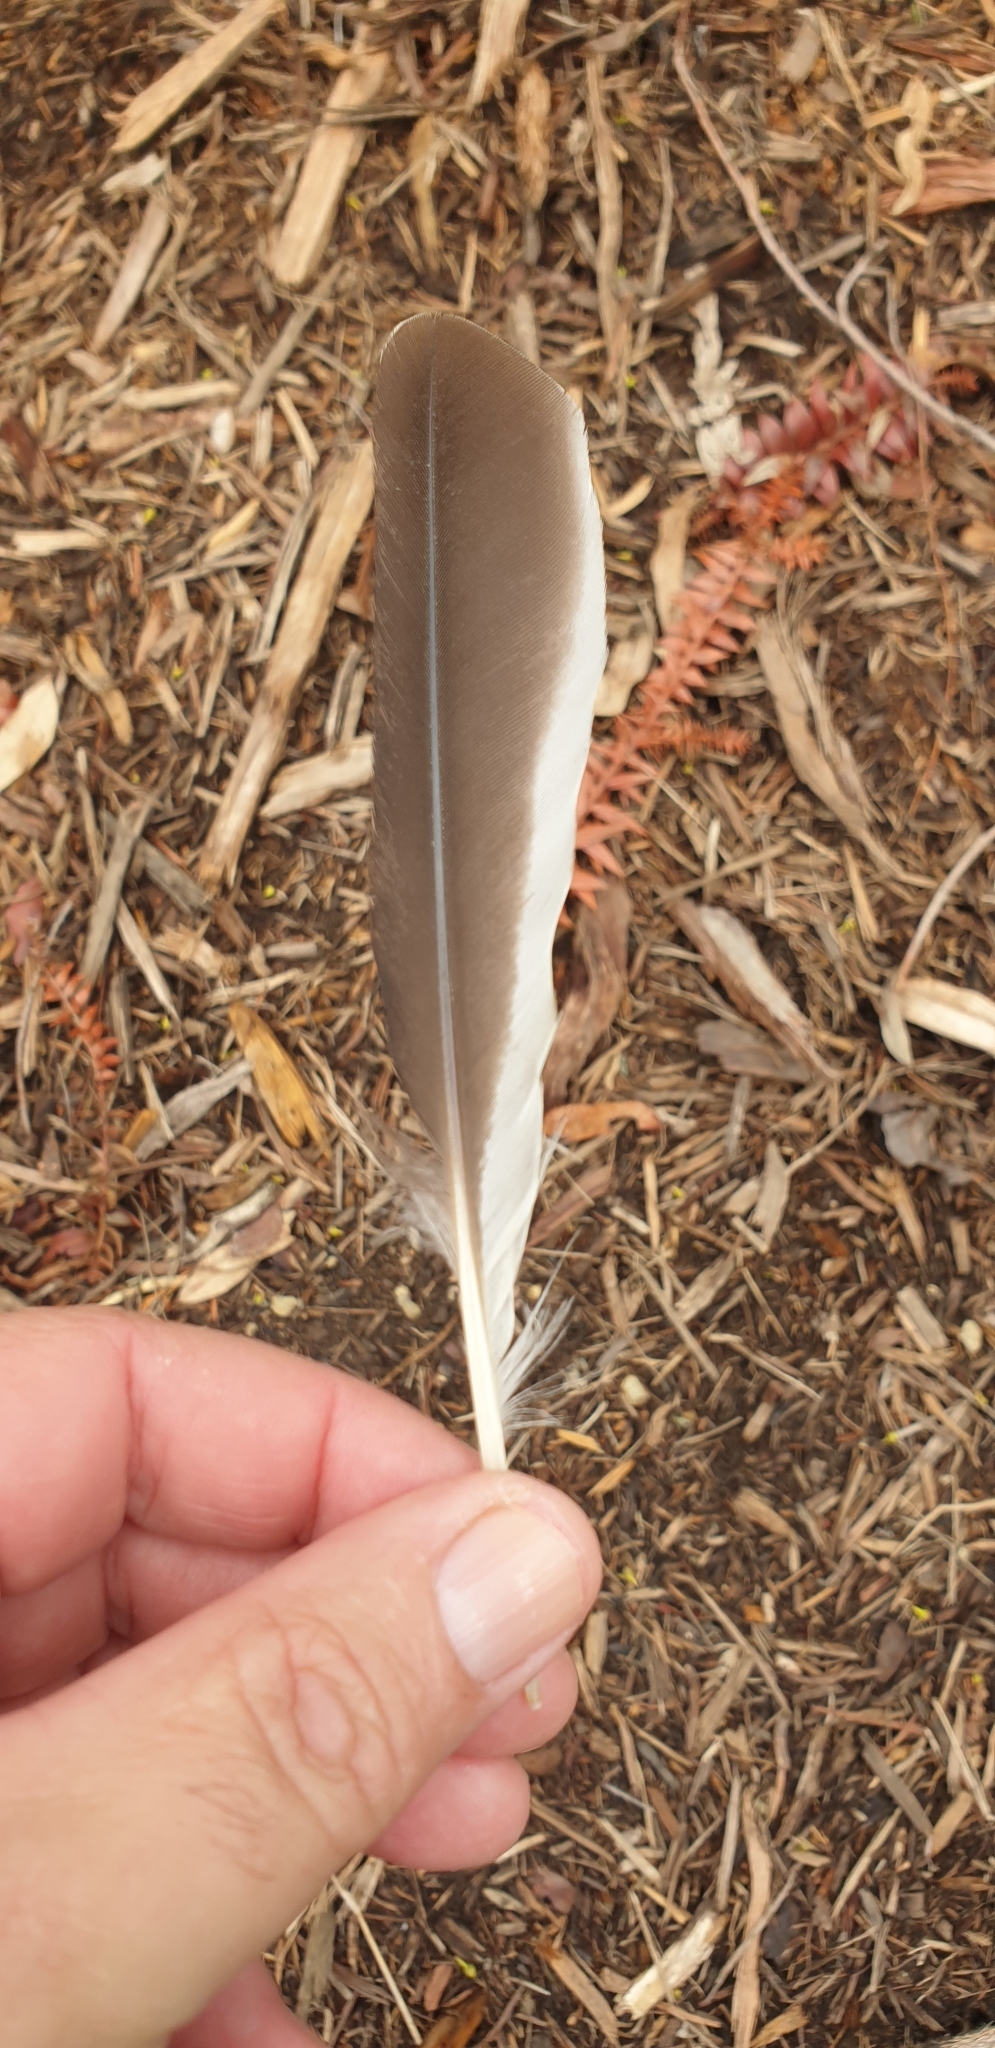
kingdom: Animalia
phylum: Chordata
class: Aves
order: Coraciiformes
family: Alcedinidae
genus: Dacelo
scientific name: Dacelo novaeguineae
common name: Laughing kookaburra
